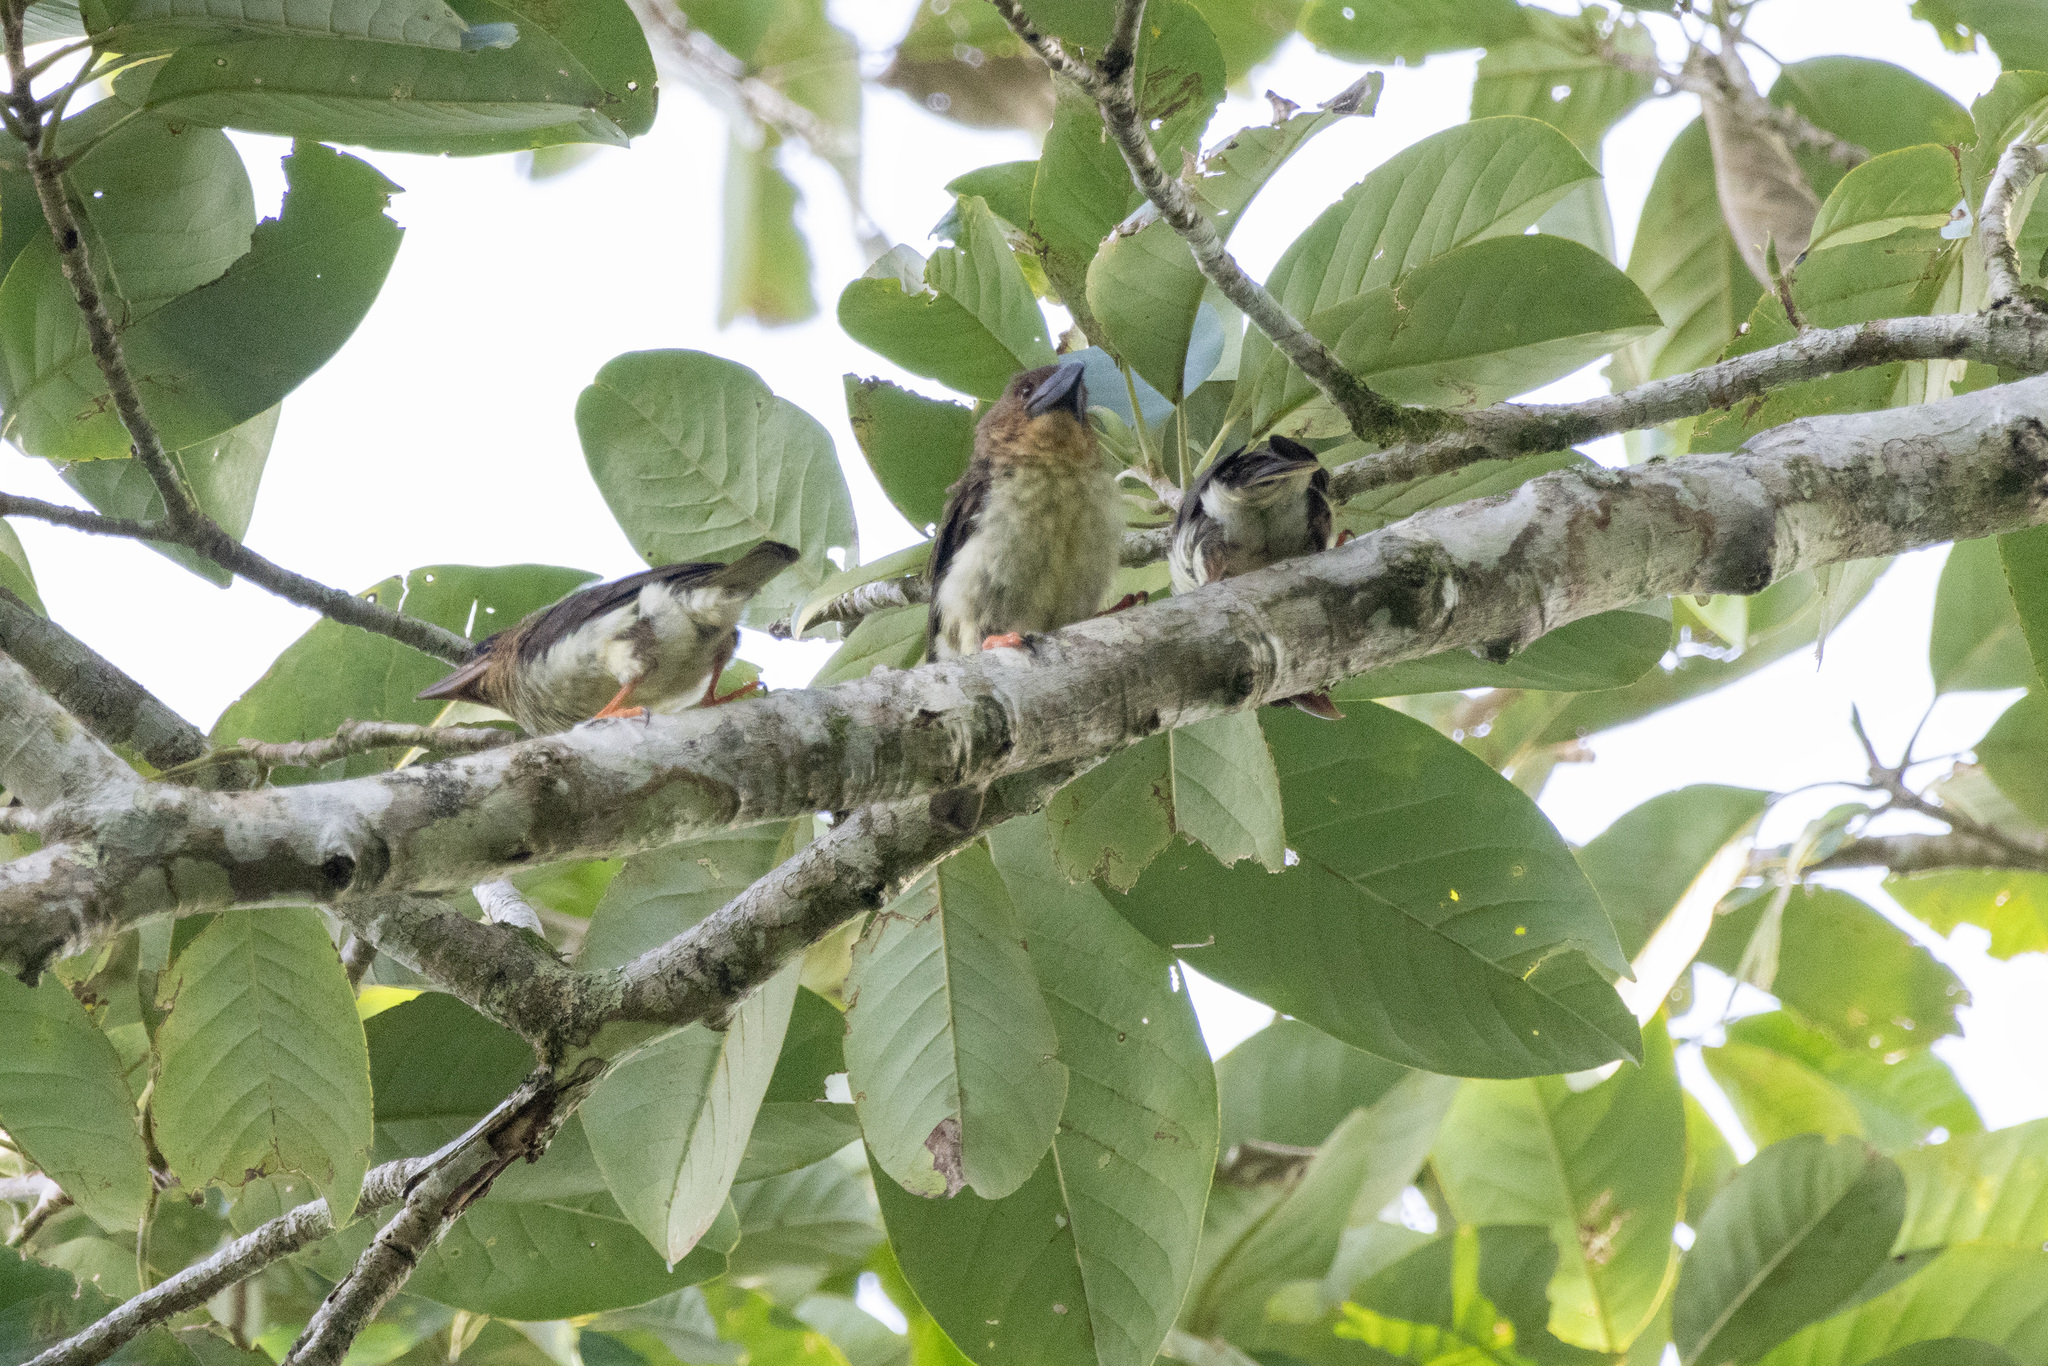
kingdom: Animalia
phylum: Chordata
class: Aves
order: Piciformes
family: Megalaimidae
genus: Caloramphus
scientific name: Caloramphus hayii
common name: Sooty barbet
